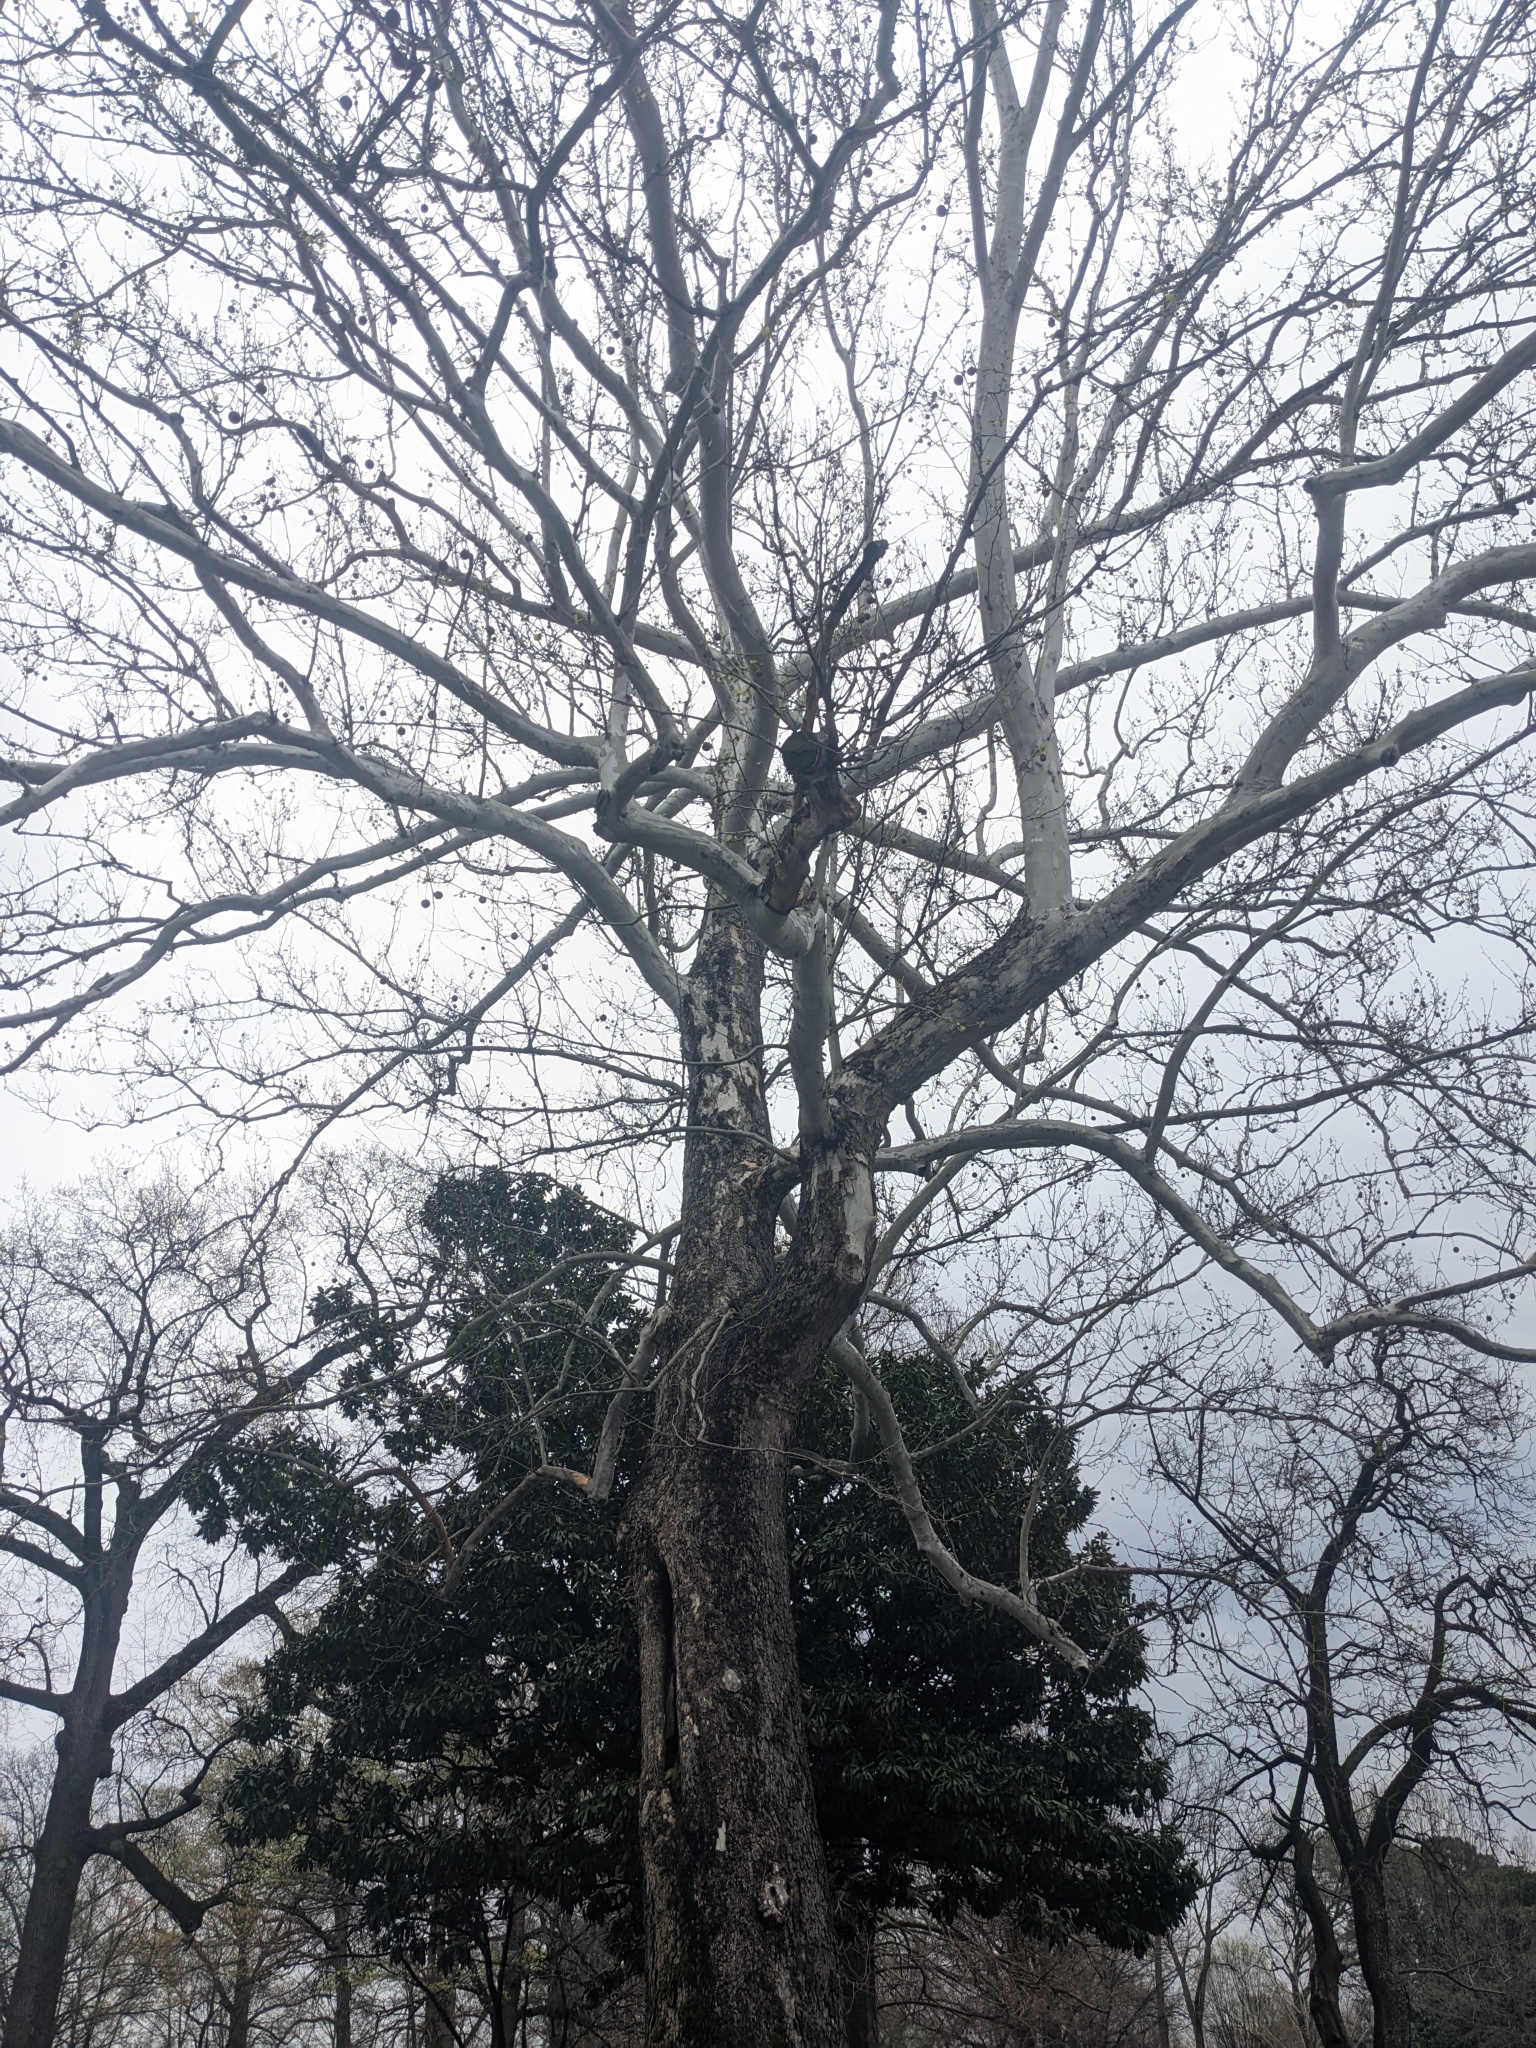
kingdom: Plantae
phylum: Tracheophyta
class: Magnoliopsida
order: Proteales
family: Platanaceae
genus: Platanus
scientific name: Platanus occidentalis
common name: American sycamore
